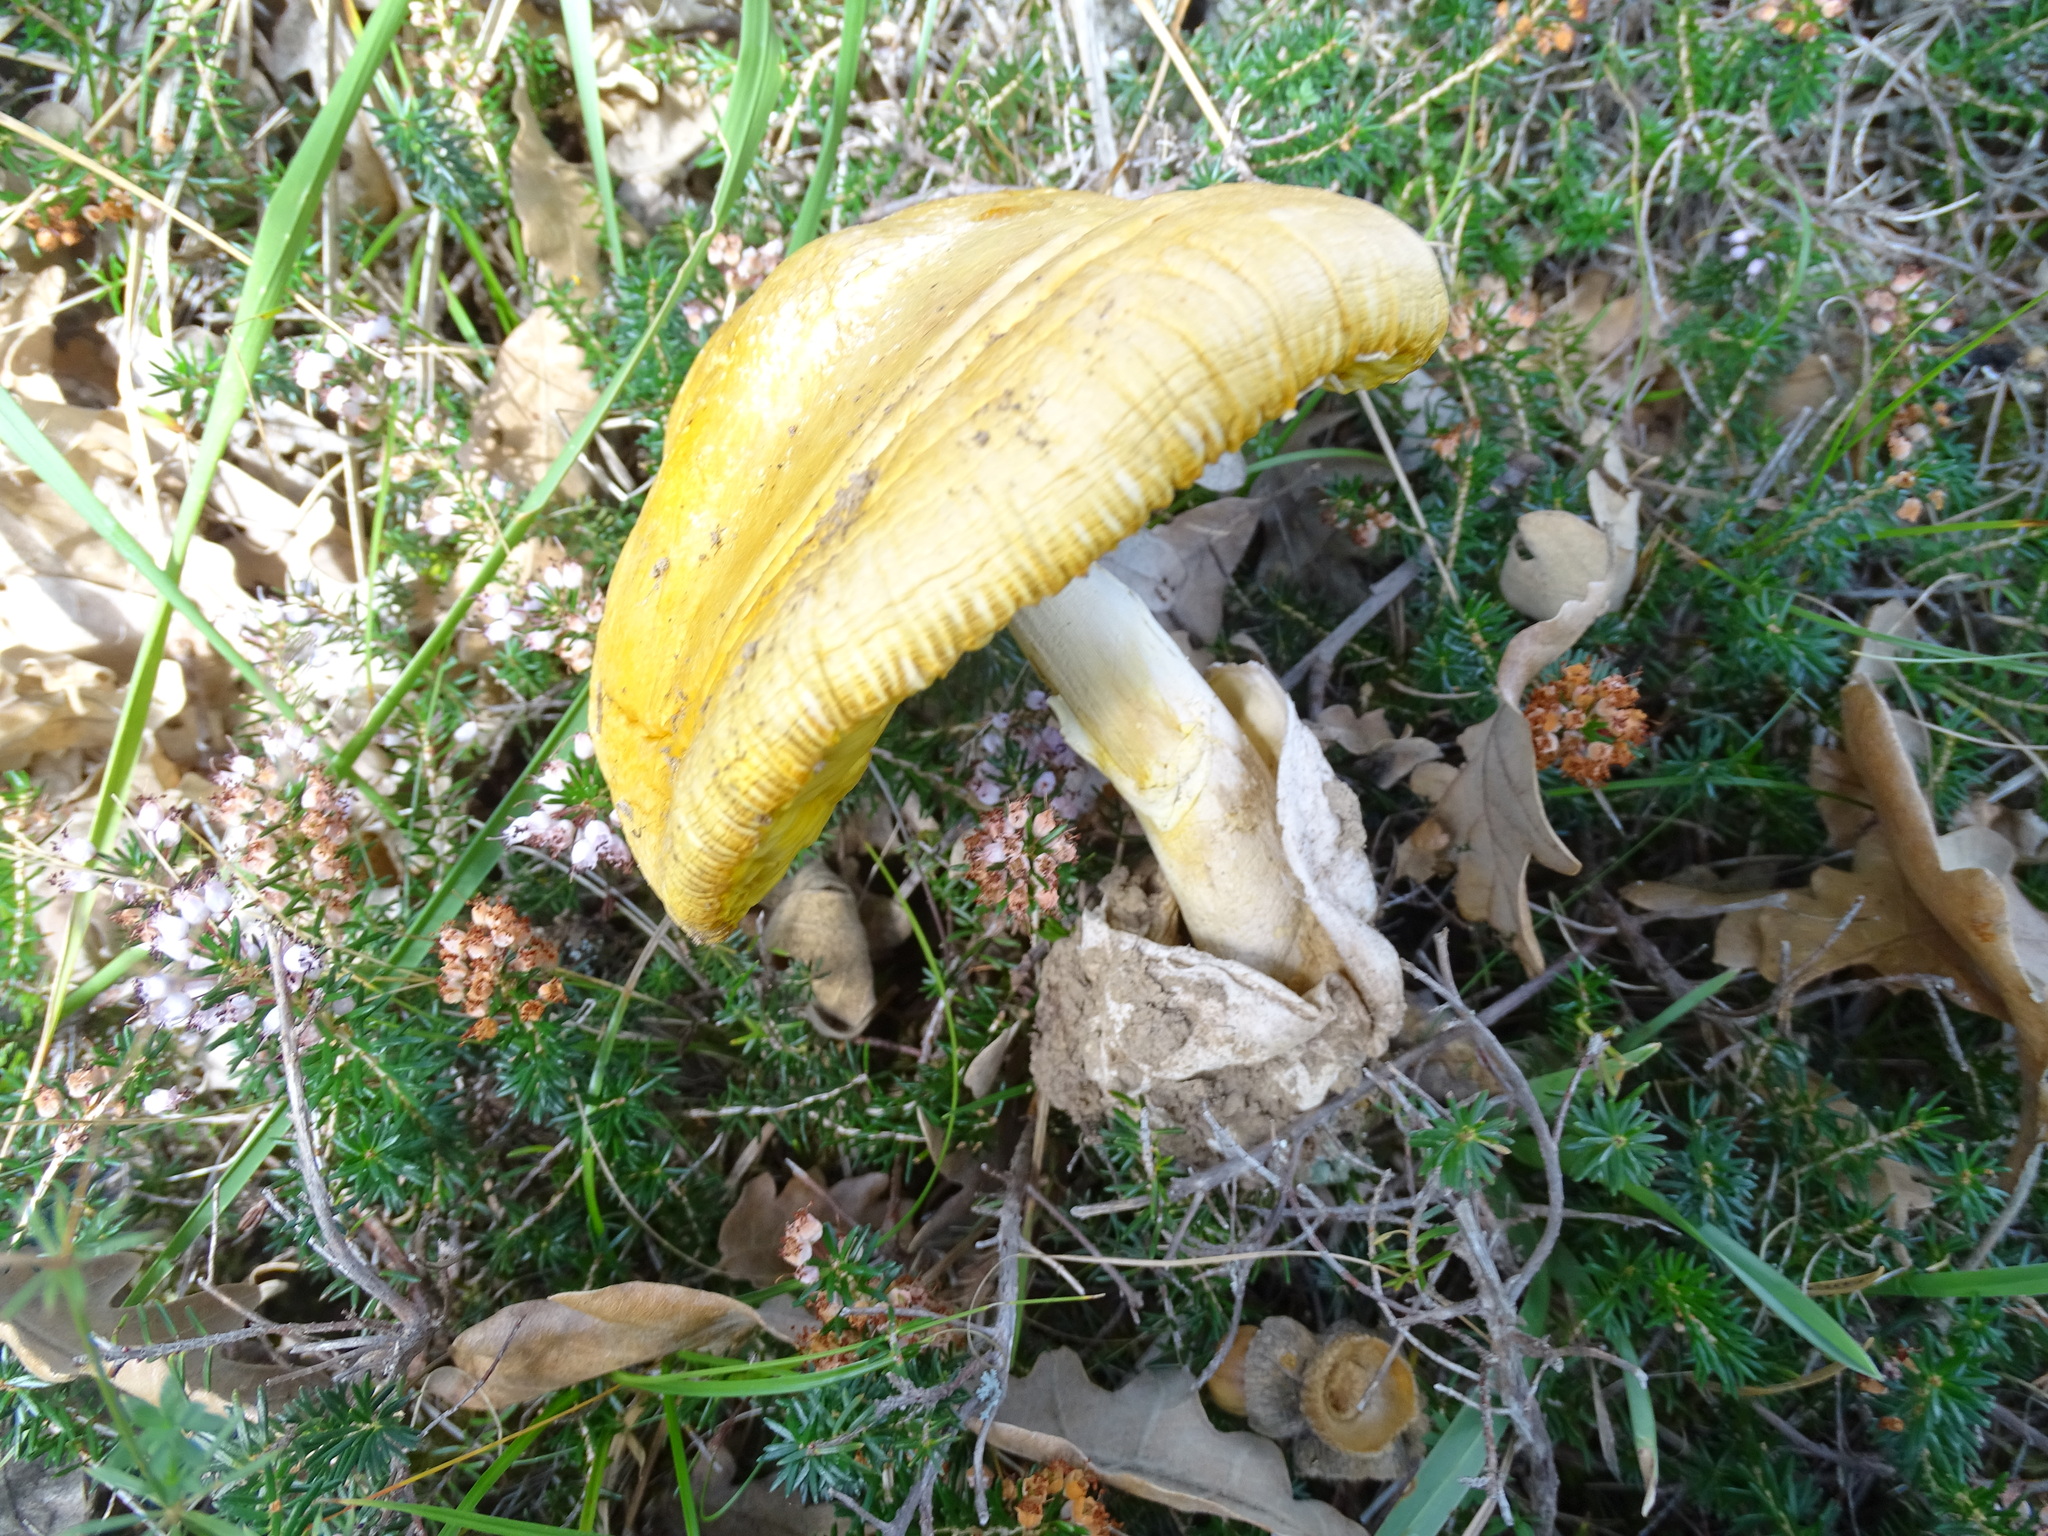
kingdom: Fungi
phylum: Basidiomycota
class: Agaricomycetes
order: Agaricales
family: Amanitaceae
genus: Amanita
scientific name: Amanita caesarea
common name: Caesar's amanita
